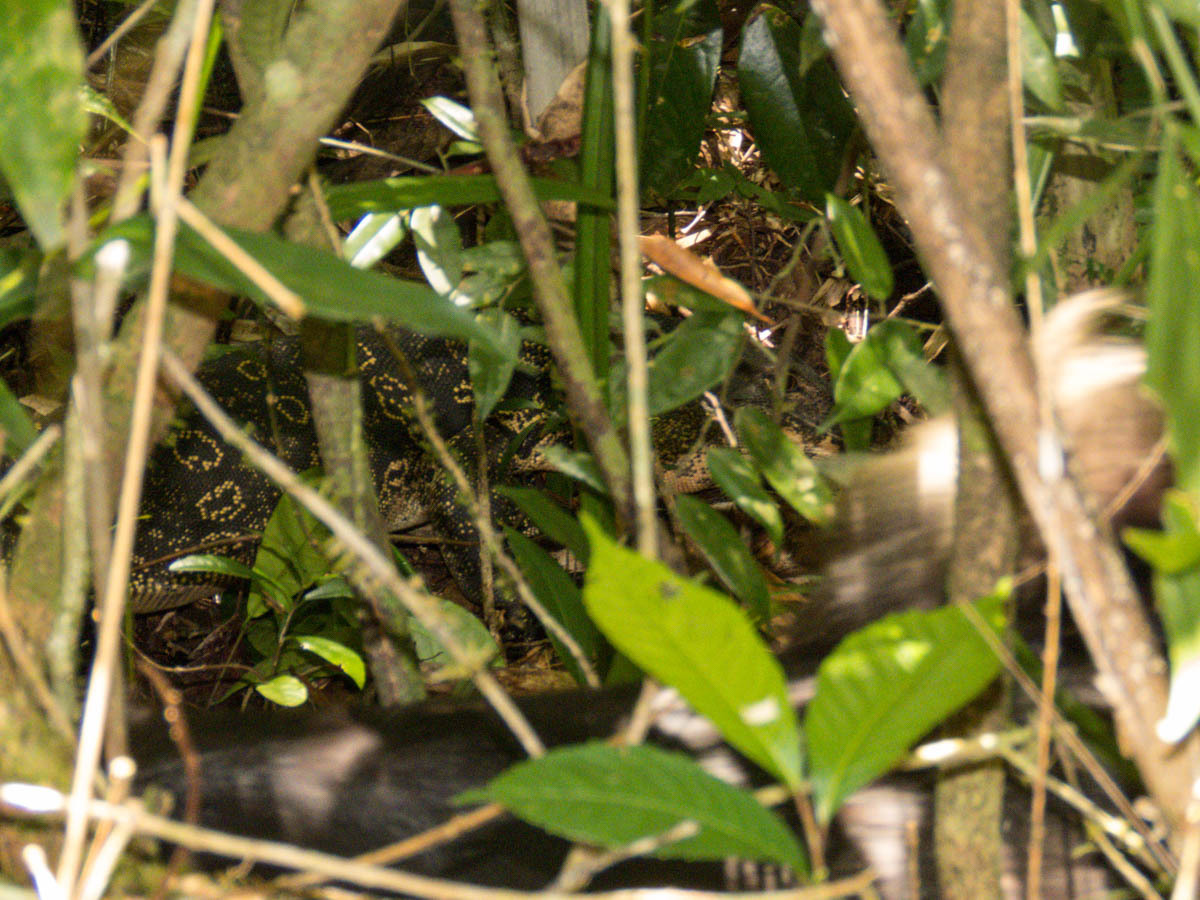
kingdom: Animalia
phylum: Chordata
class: Squamata
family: Varanidae
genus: Varanus
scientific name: Varanus nebulosus
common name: Clouded monitor
